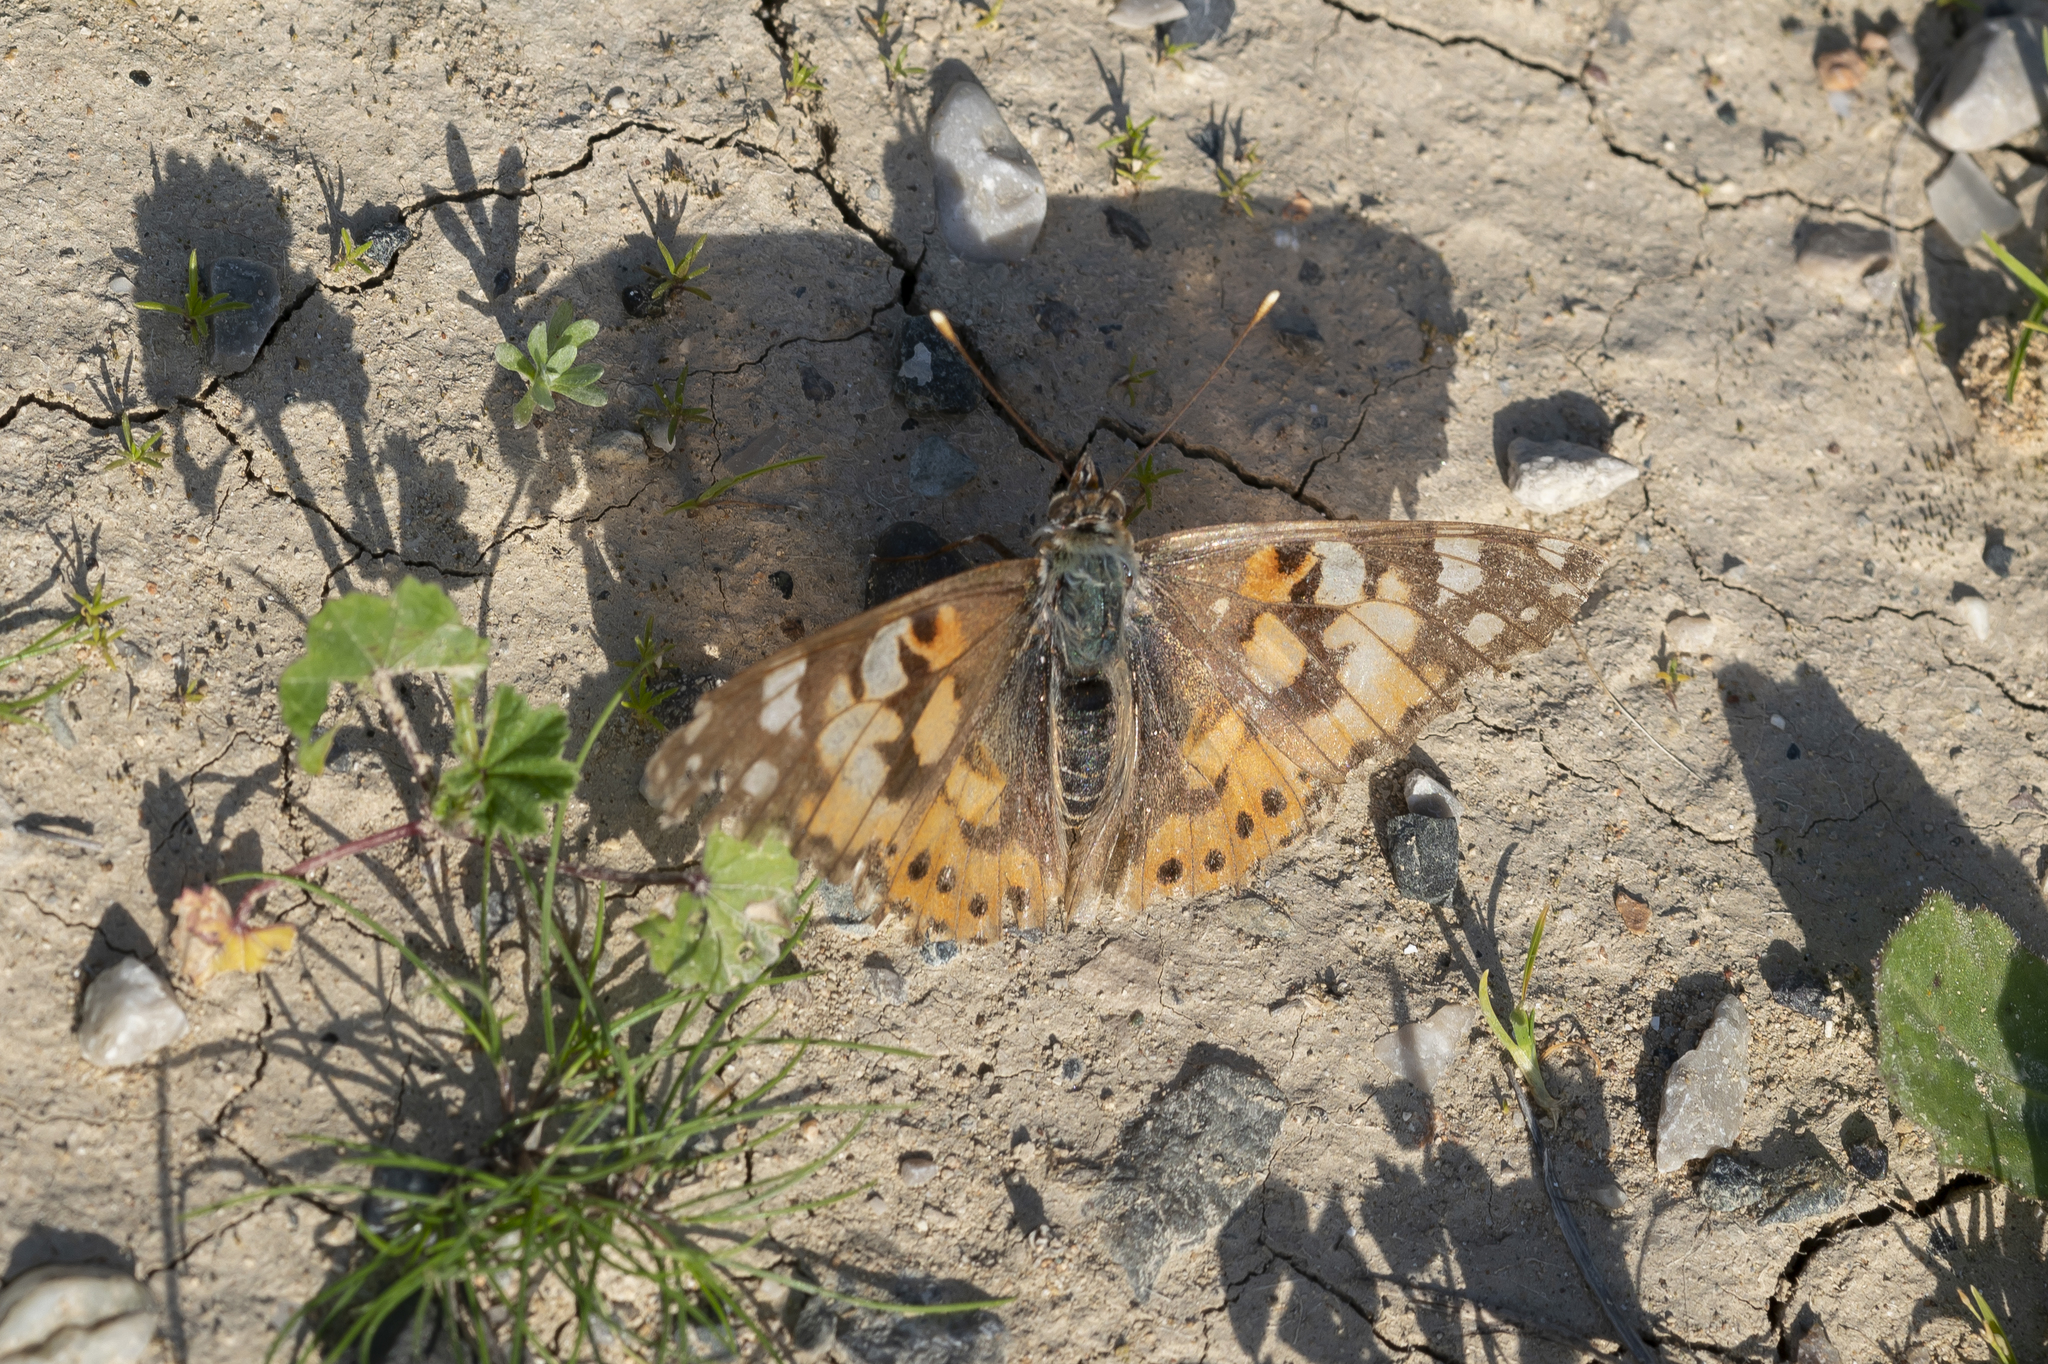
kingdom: Animalia
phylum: Arthropoda
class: Insecta
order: Lepidoptera
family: Nymphalidae
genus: Vanessa
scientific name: Vanessa cardui
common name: Painted lady
